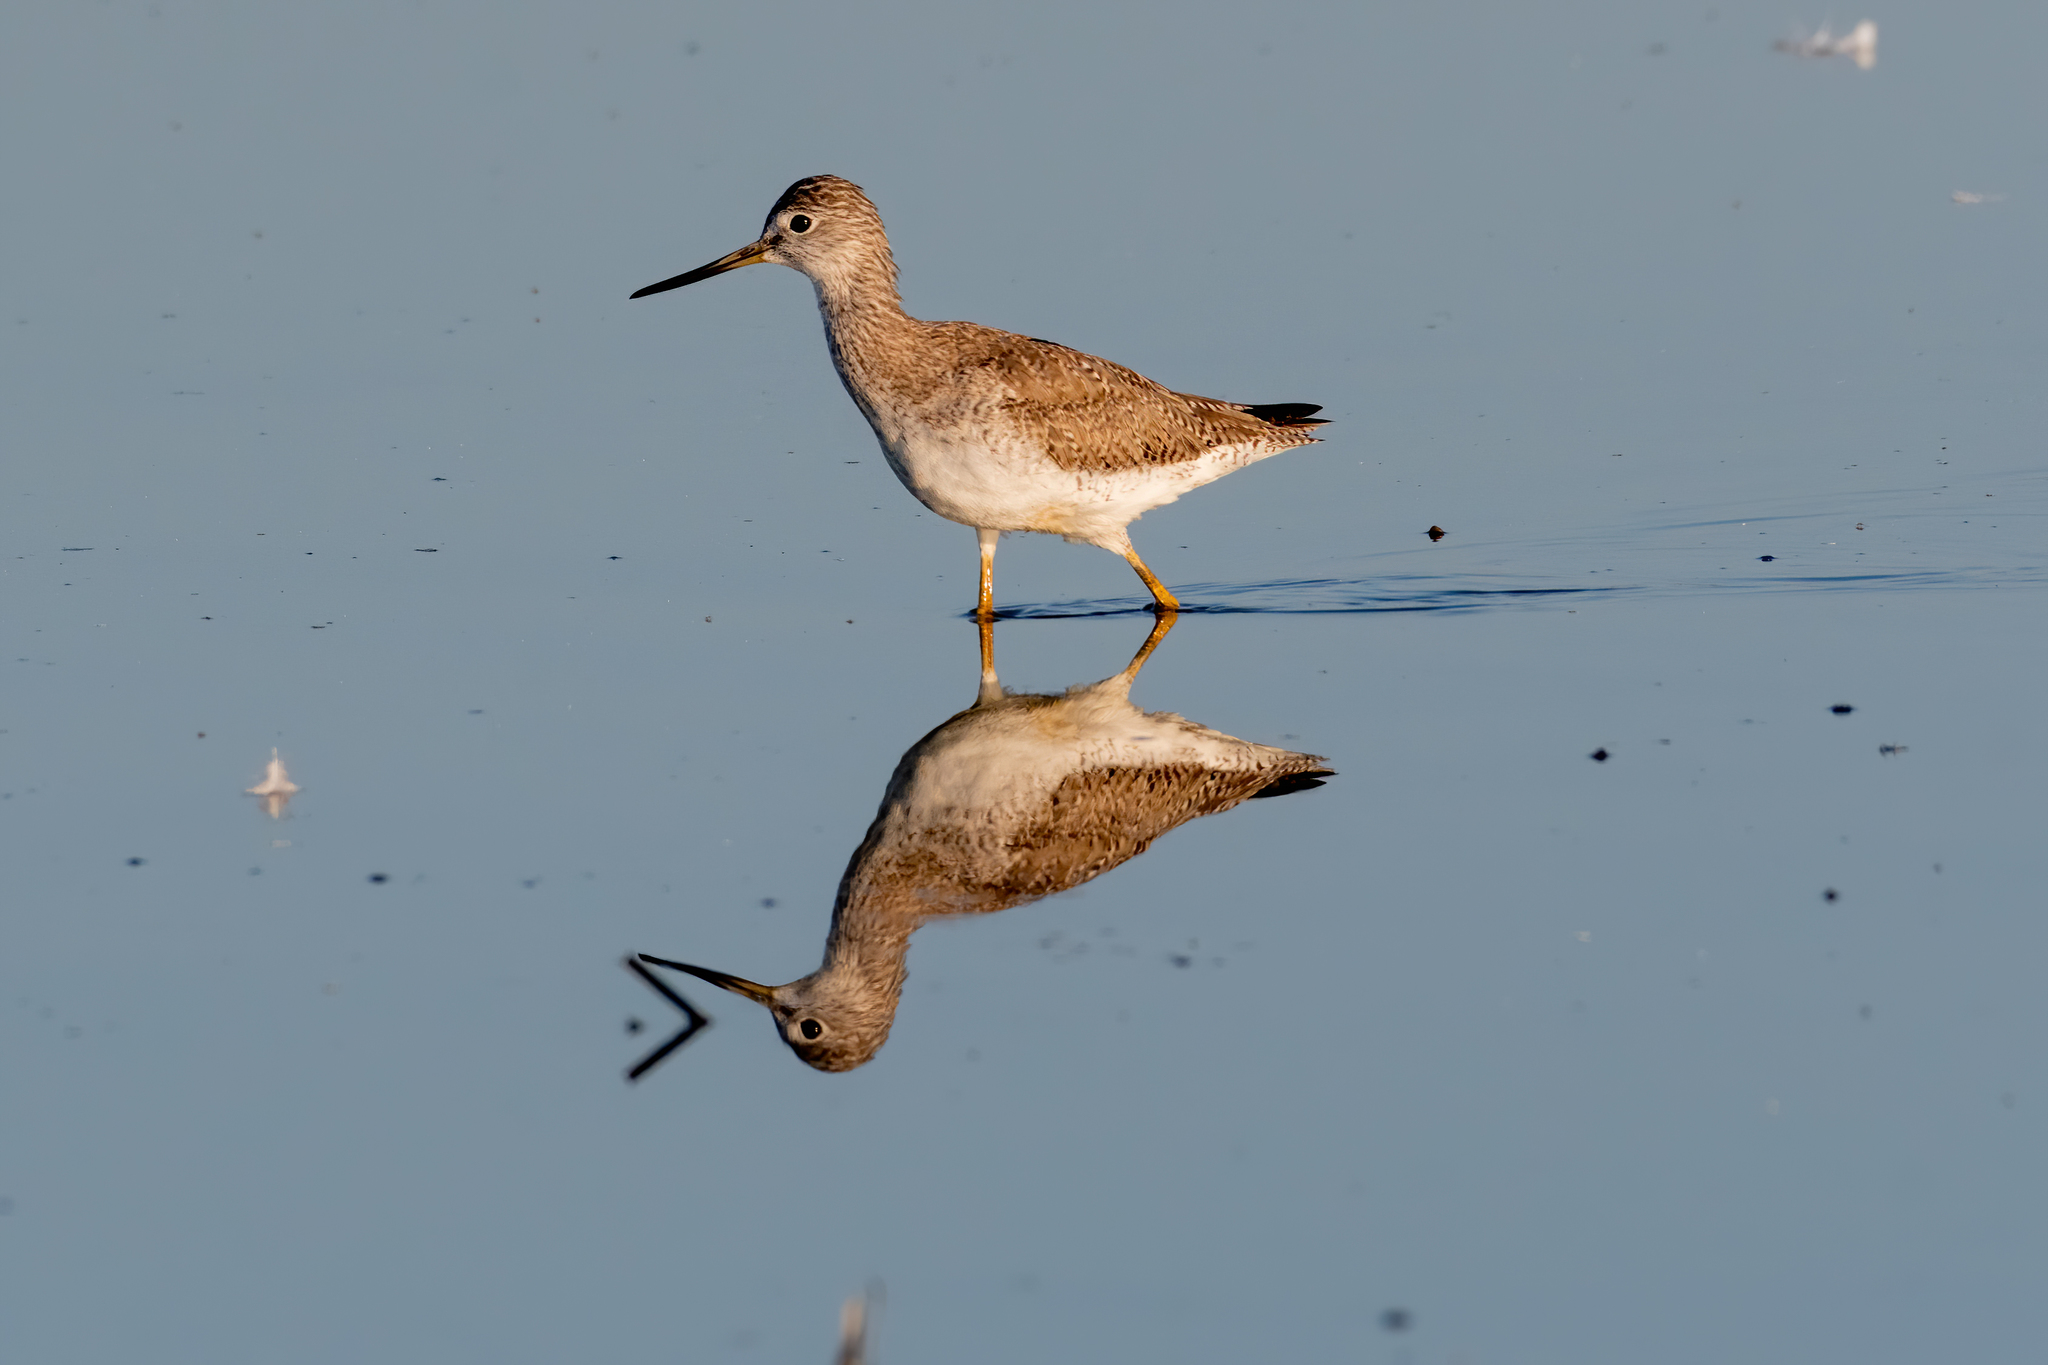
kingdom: Animalia
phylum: Chordata
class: Aves
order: Charadriiformes
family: Scolopacidae
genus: Tringa
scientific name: Tringa melanoleuca
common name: Greater yellowlegs
